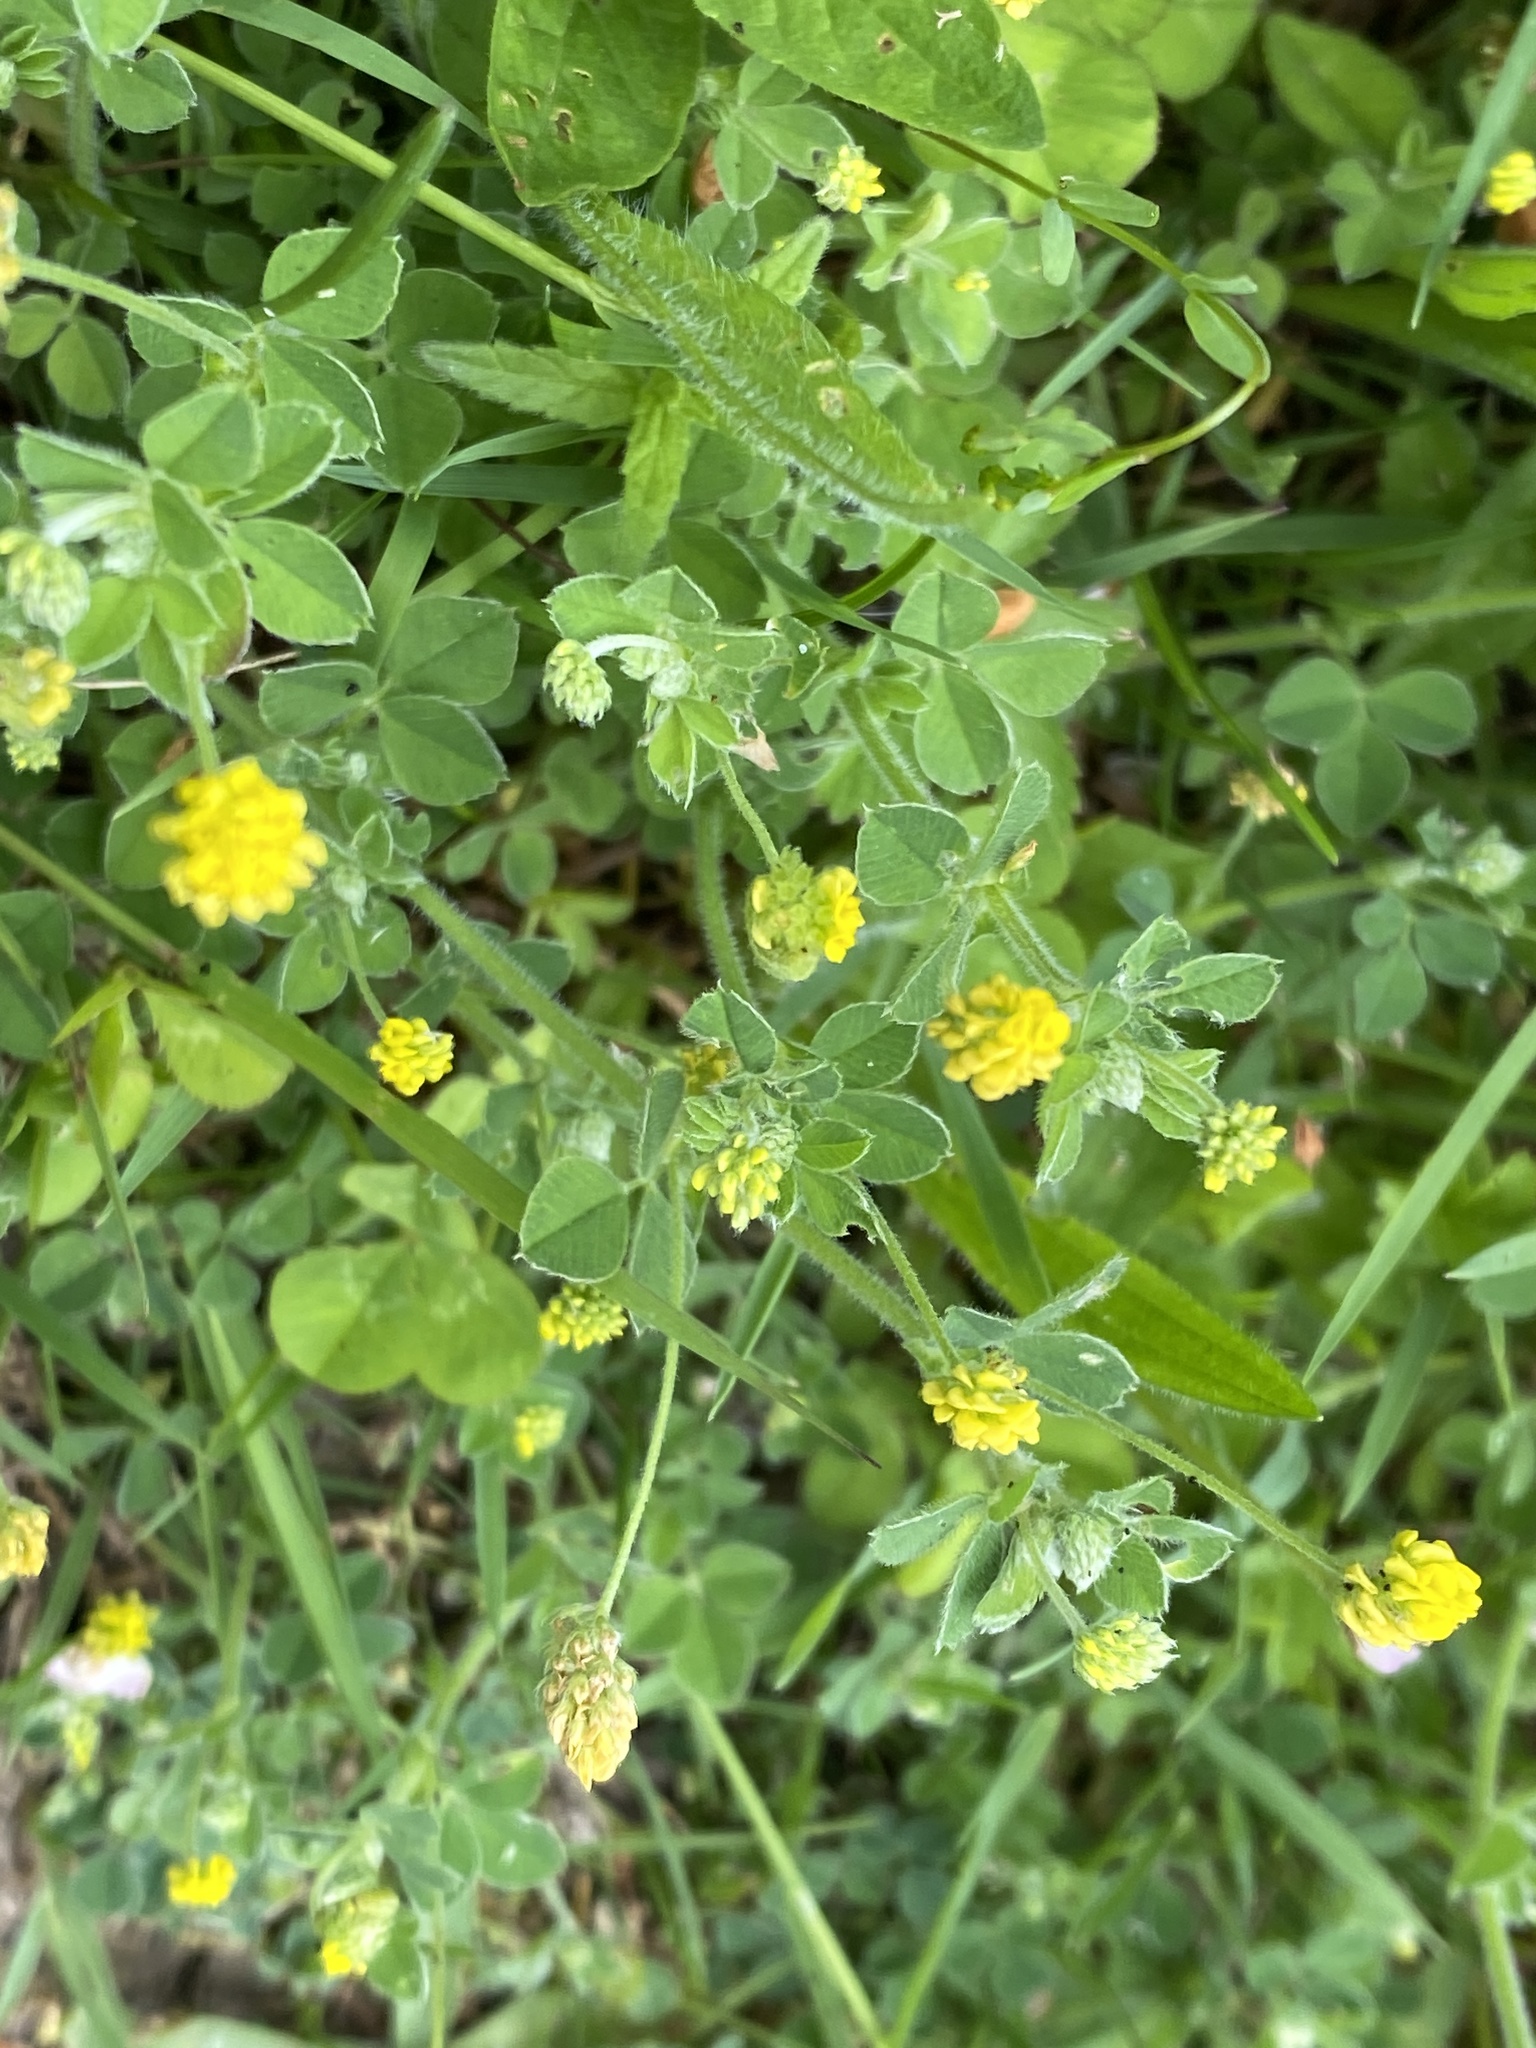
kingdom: Plantae
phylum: Tracheophyta
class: Magnoliopsida
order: Fabales
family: Fabaceae
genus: Medicago
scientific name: Medicago lupulina
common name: Black medick
